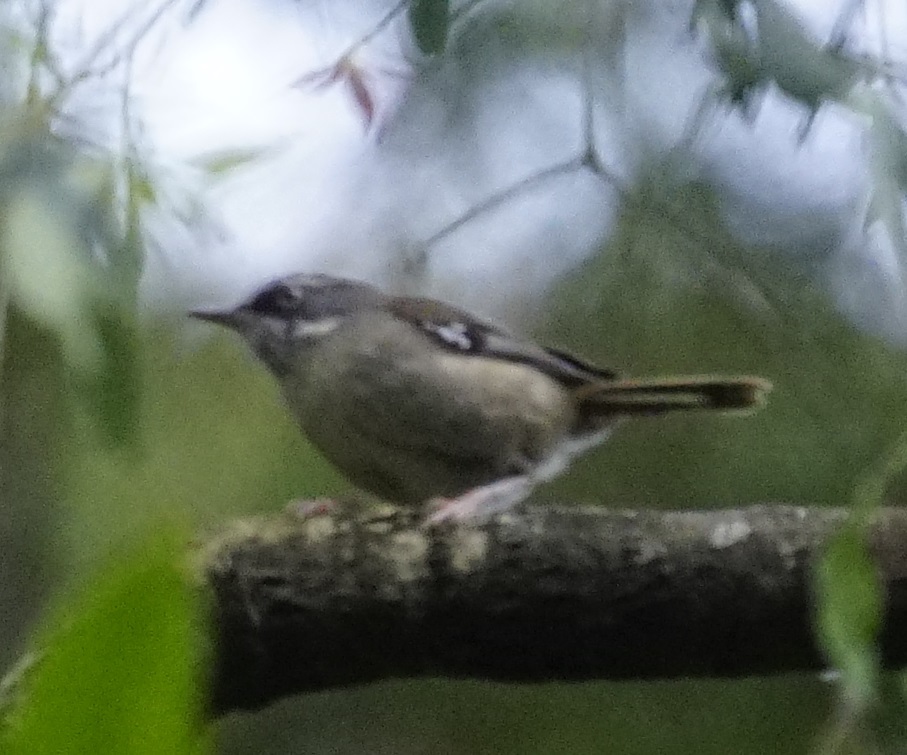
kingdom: Animalia
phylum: Chordata
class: Aves
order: Passeriformes
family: Acanthizidae
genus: Sericornis
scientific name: Sericornis frontalis
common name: White-browed scrubwren
